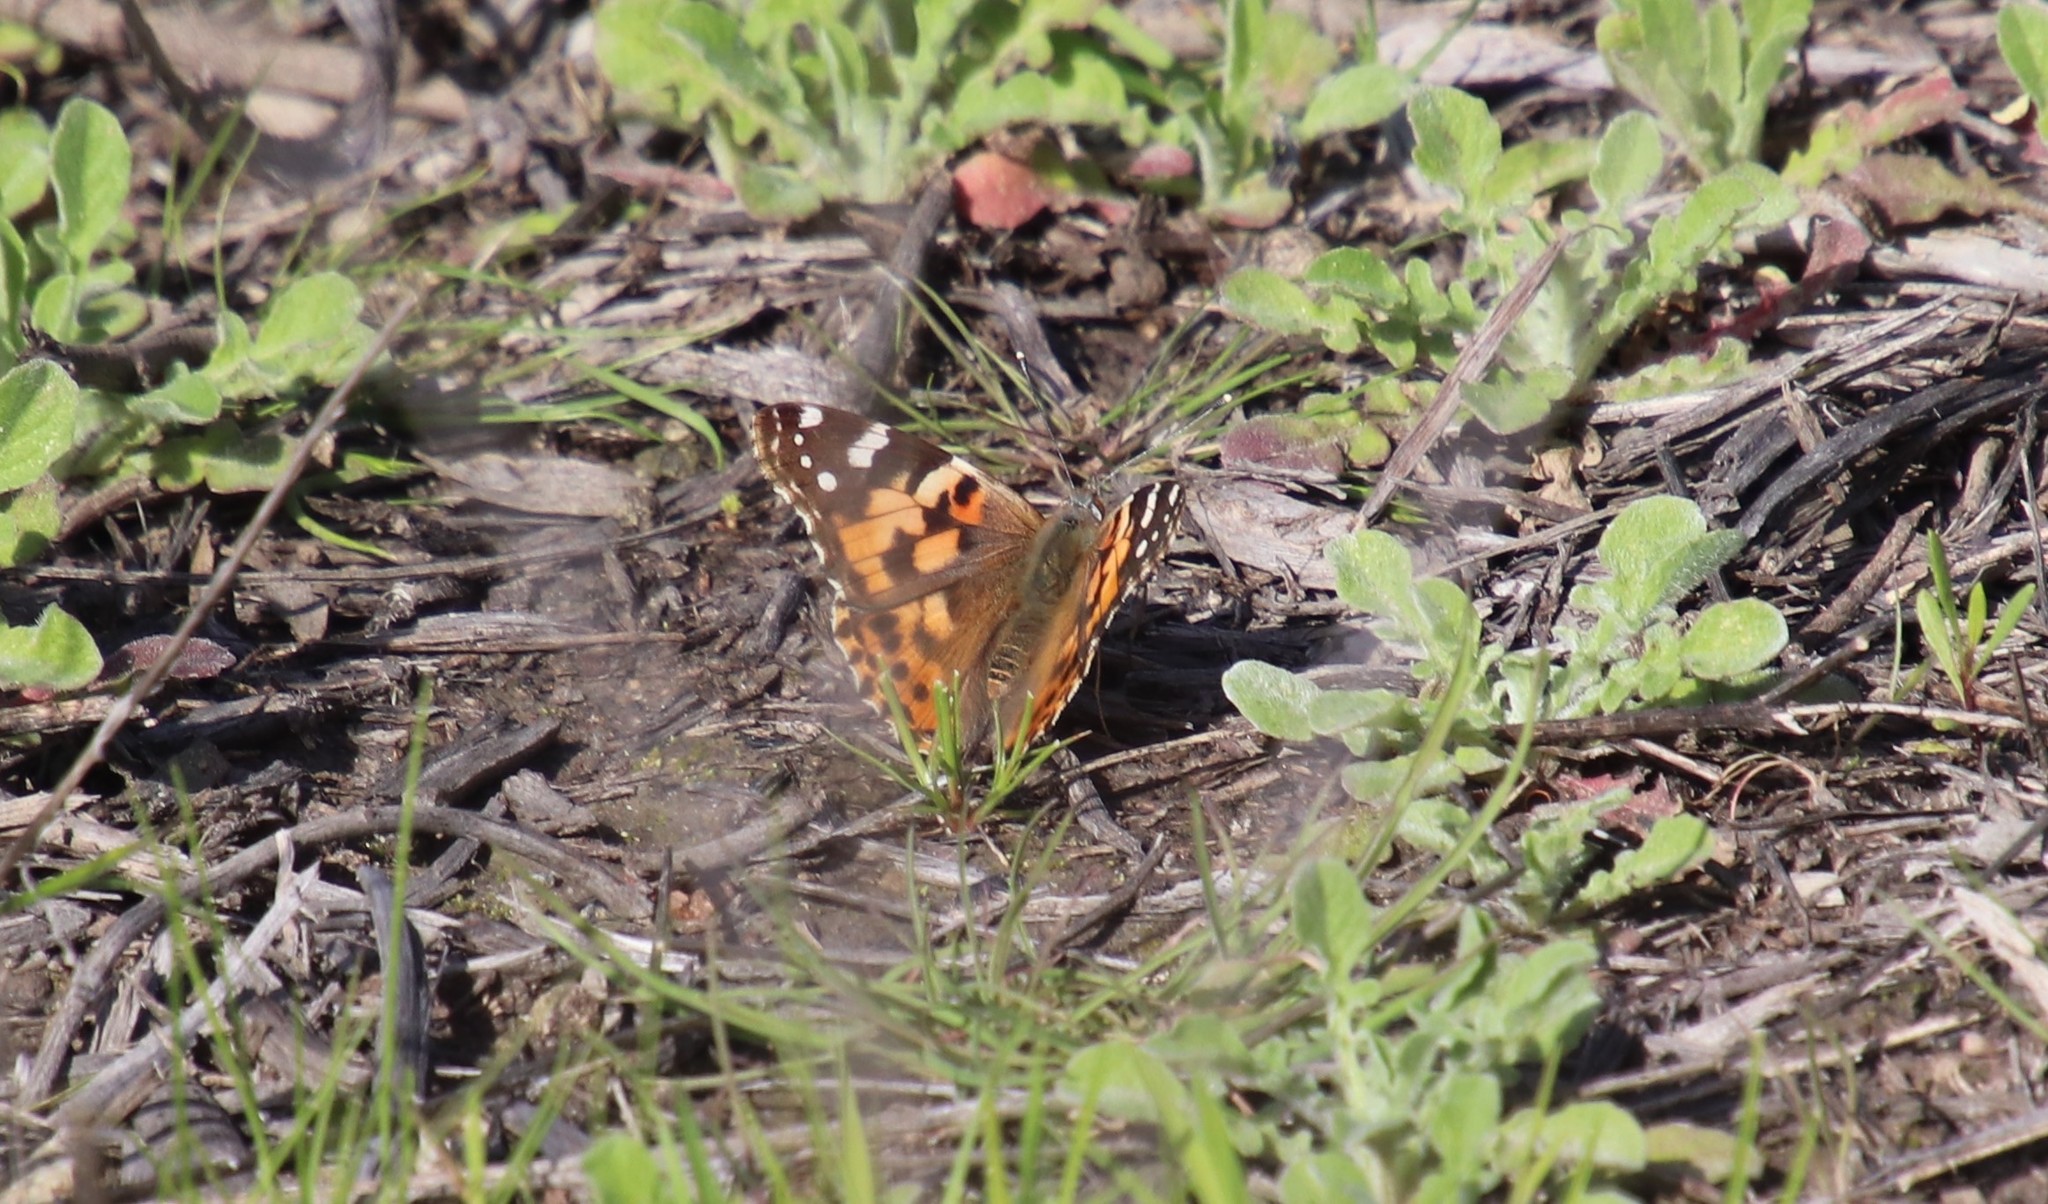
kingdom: Animalia
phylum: Arthropoda
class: Insecta
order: Lepidoptera
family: Nymphalidae
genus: Vanessa
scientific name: Vanessa cardui
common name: Painted lady
